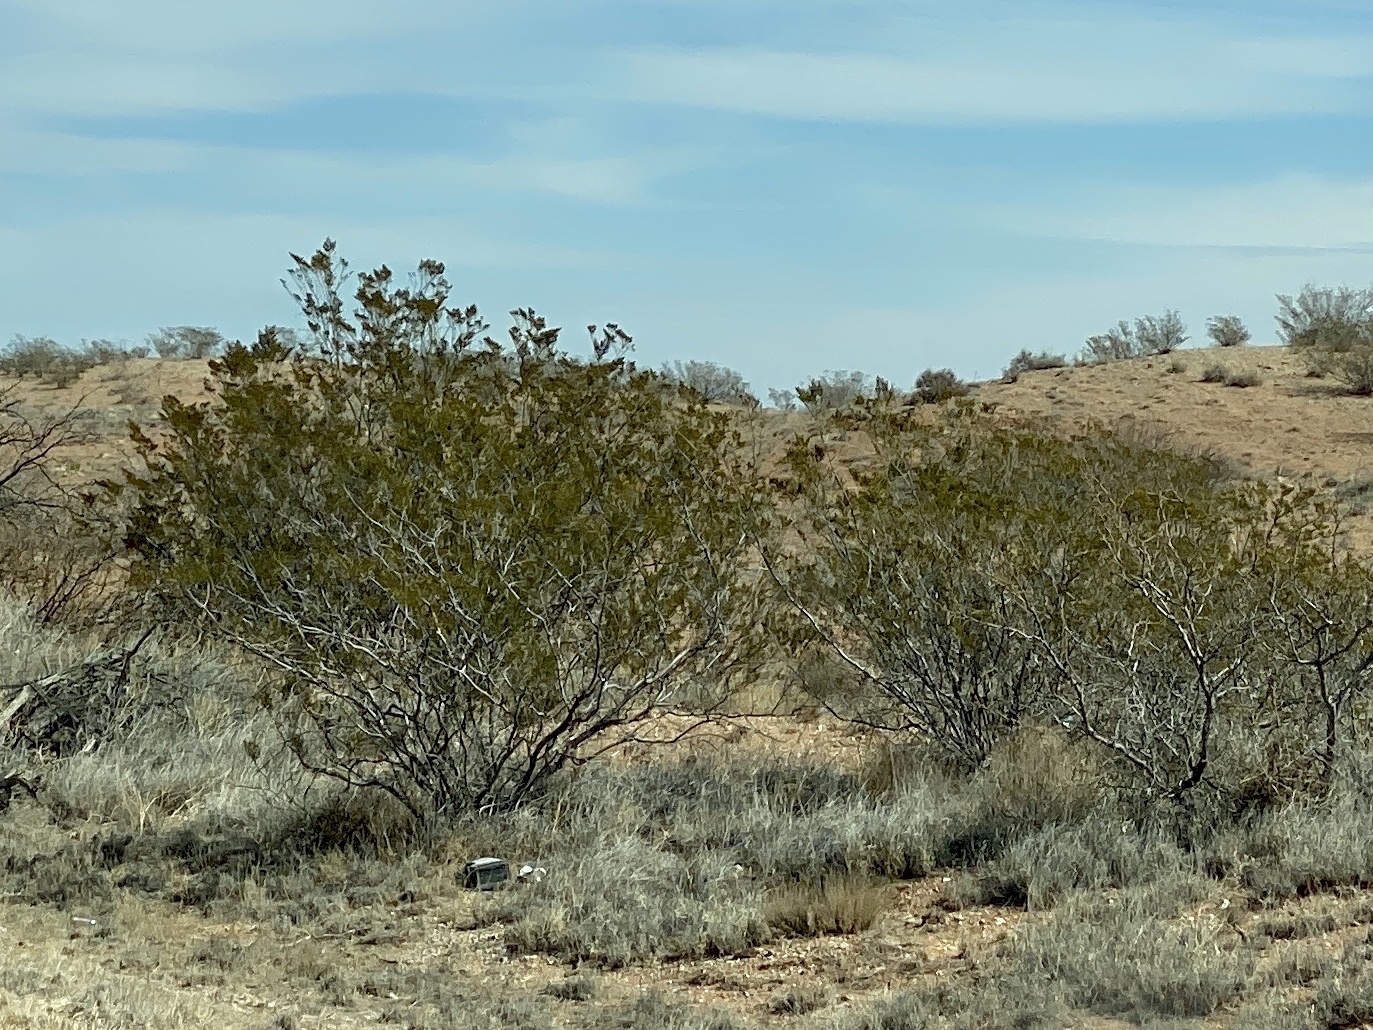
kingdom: Plantae
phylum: Tracheophyta
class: Magnoliopsida
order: Zygophyllales
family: Zygophyllaceae
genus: Larrea
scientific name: Larrea tridentata
